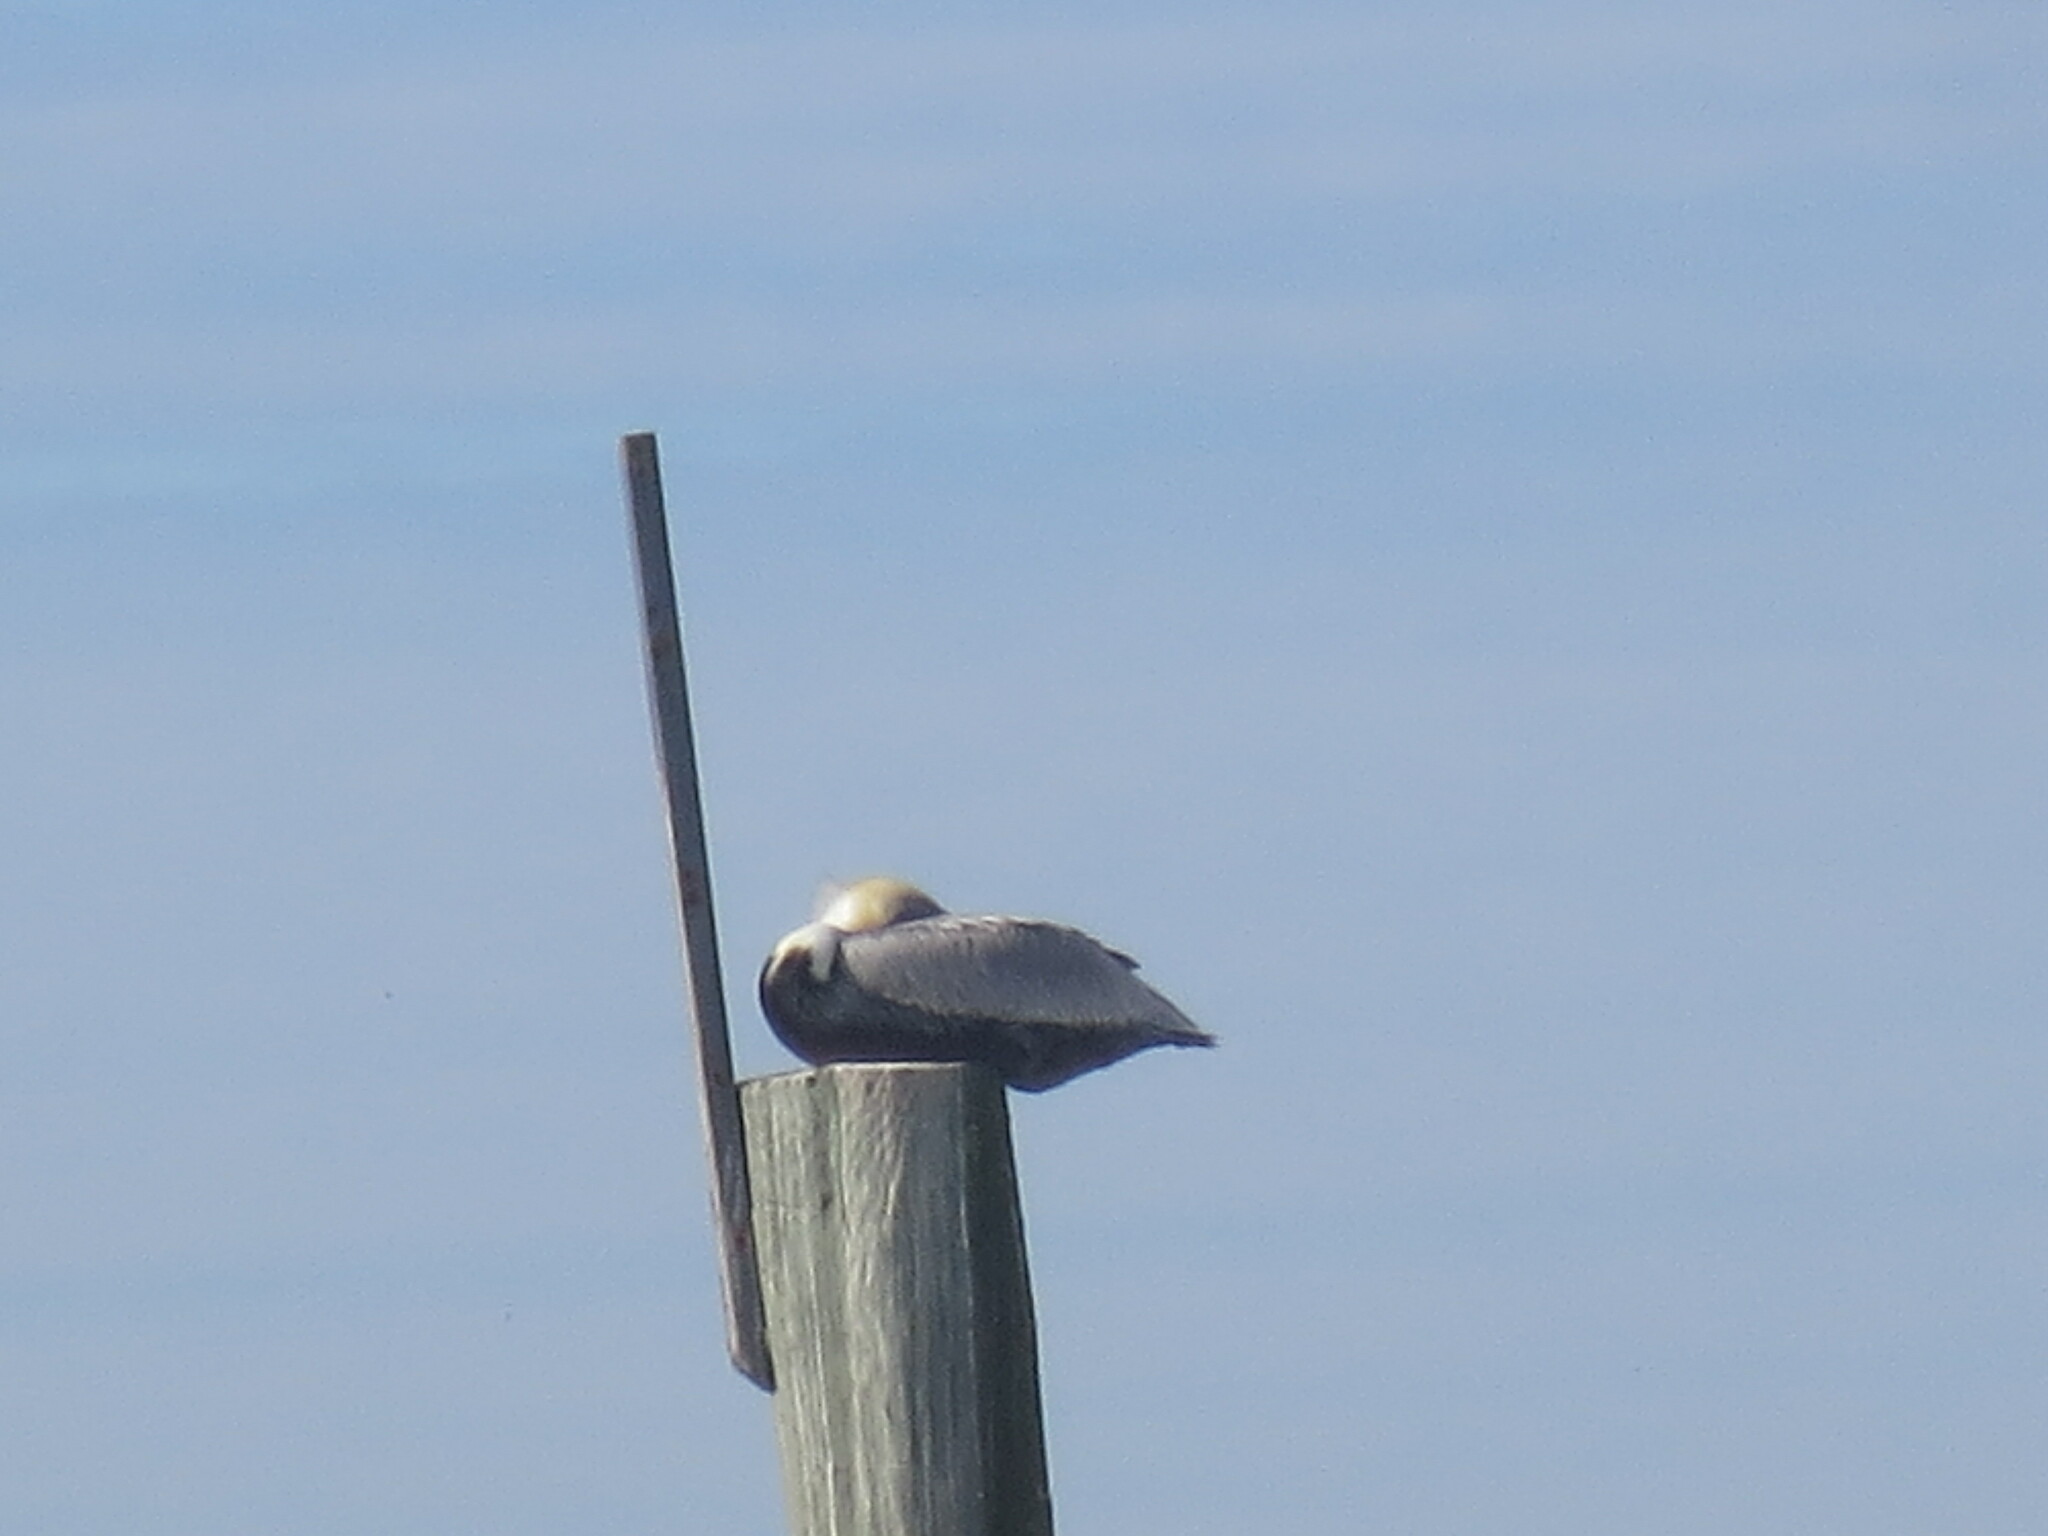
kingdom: Animalia
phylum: Chordata
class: Aves
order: Pelecaniformes
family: Pelecanidae
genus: Pelecanus
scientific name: Pelecanus occidentalis
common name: Brown pelican
